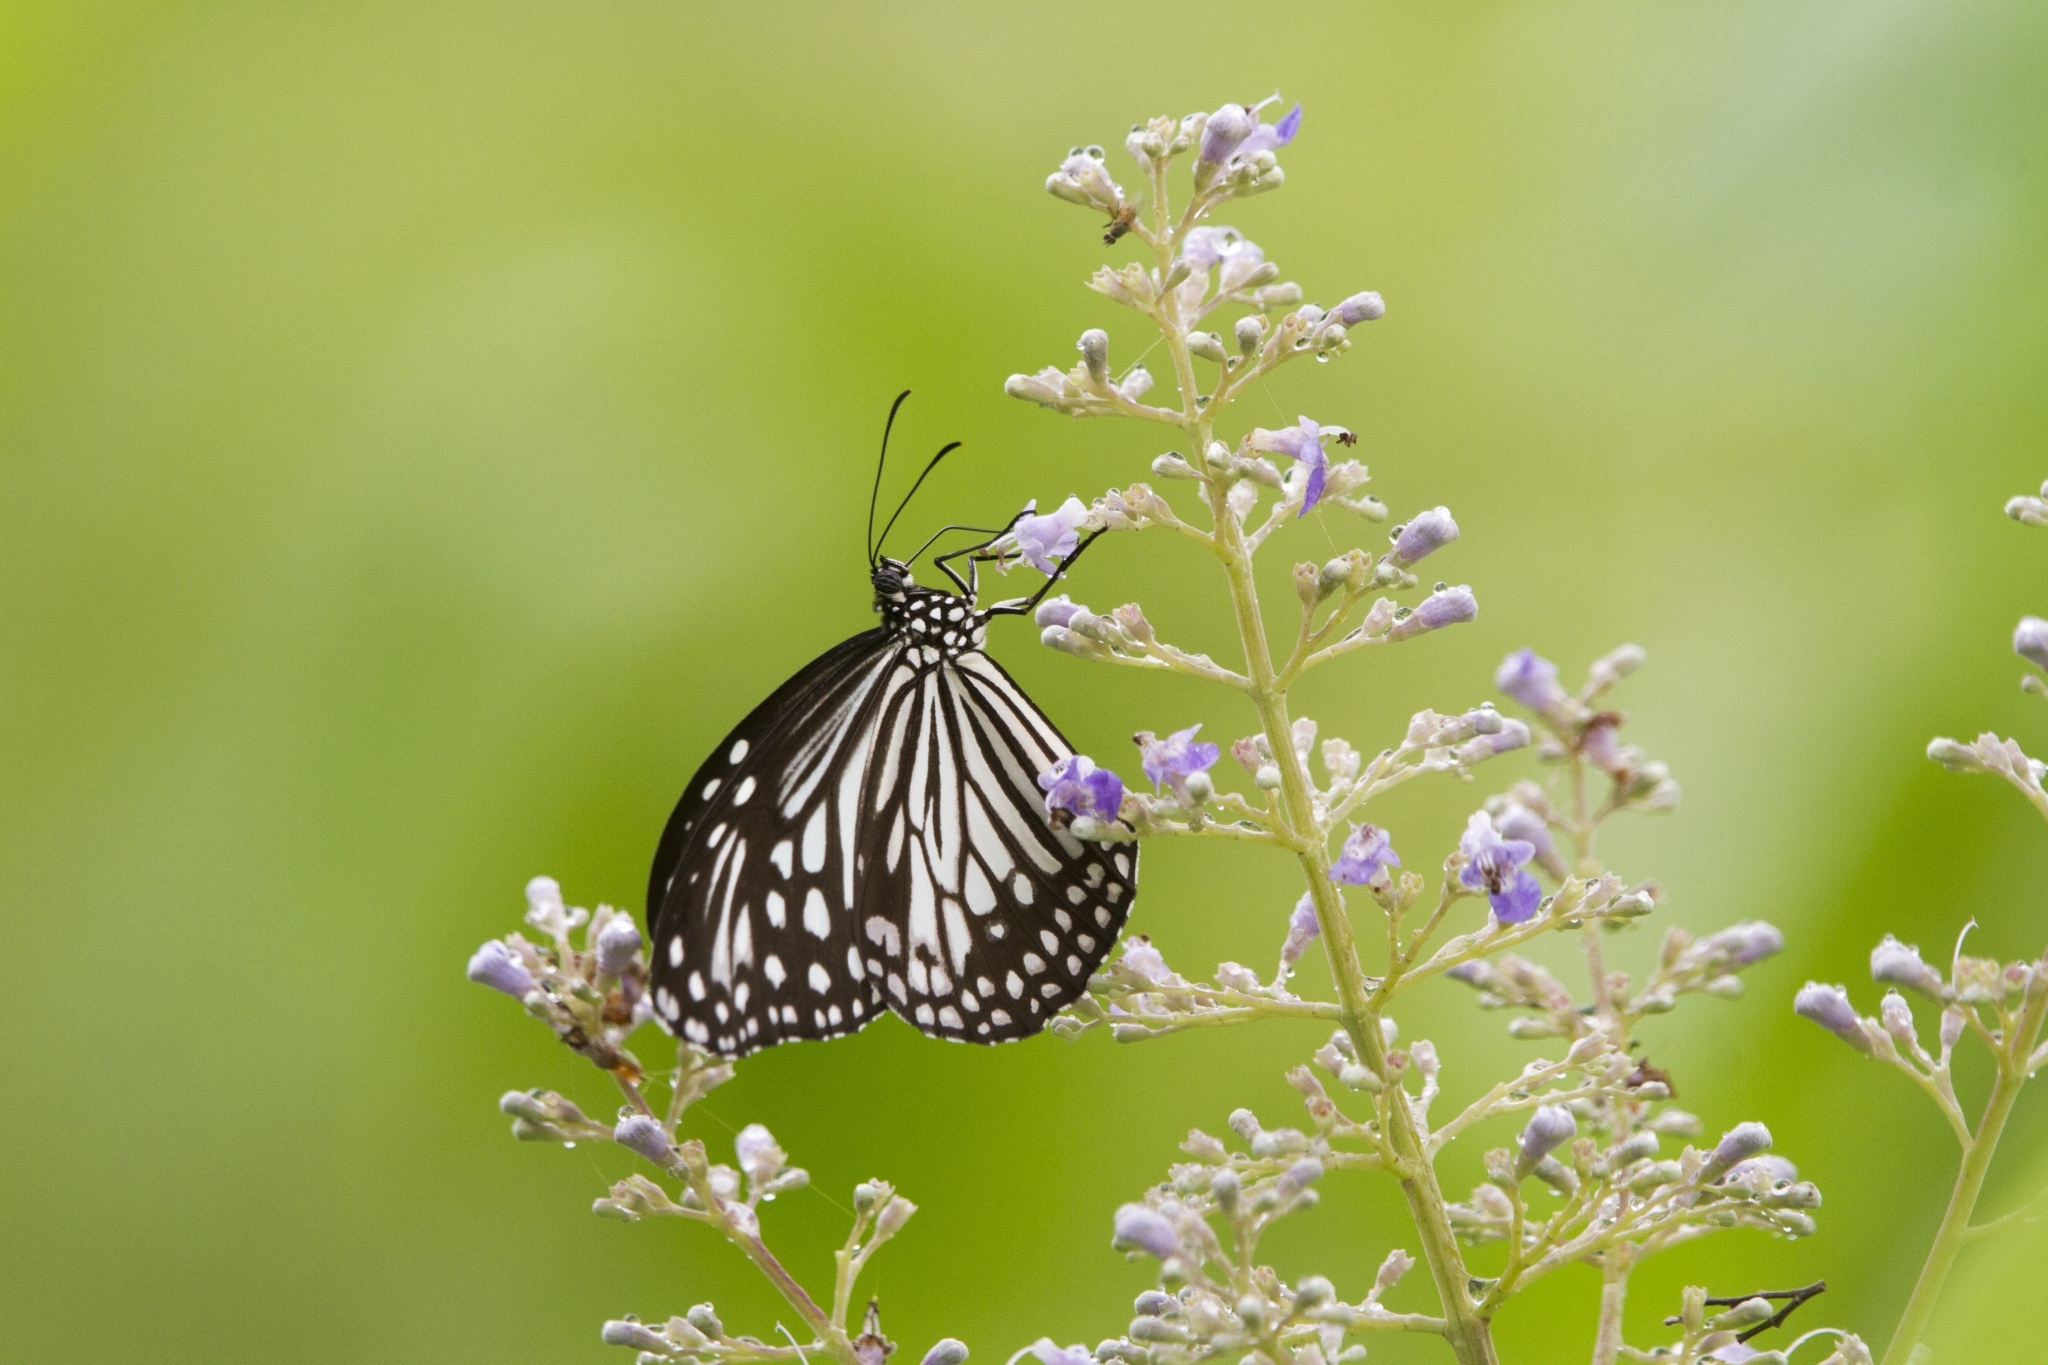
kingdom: Animalia
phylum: Arthropoda
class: Insecta
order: Lepidoptera
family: Nymphalidae
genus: Parantica
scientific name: Parantica aglea
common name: Glassy tiger
